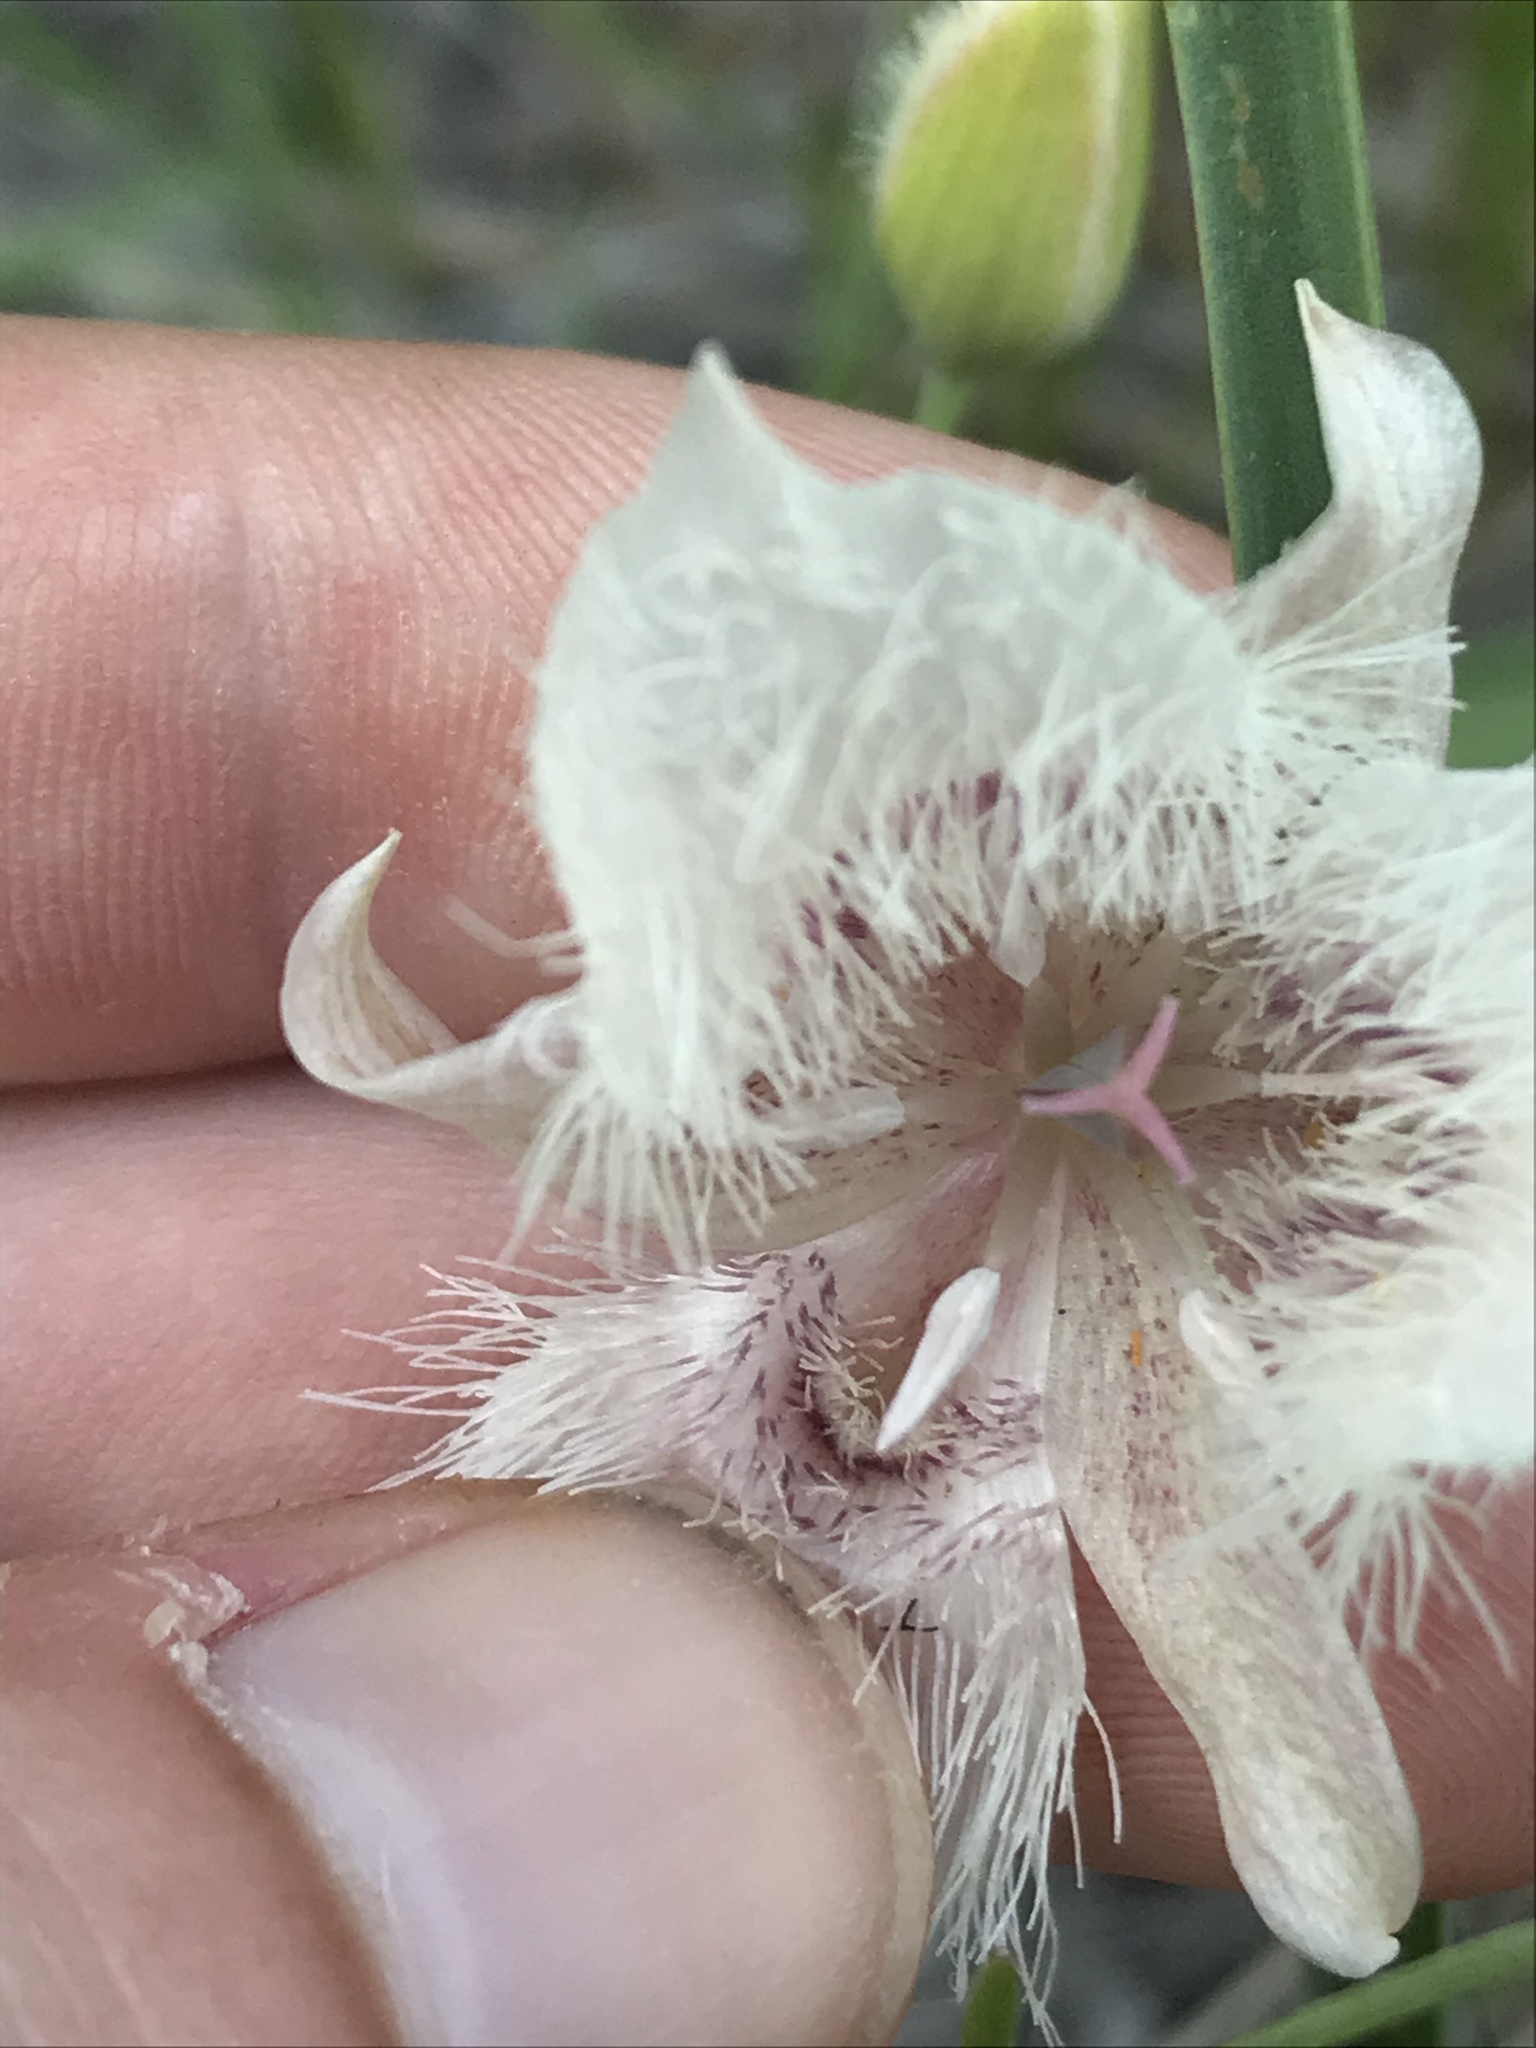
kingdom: Plantae
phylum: Tracheophyta
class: Liliopsida
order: Liliales
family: Liliaceae
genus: Calochortus
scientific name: Calochortus tolmiei
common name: Pussy-ears
